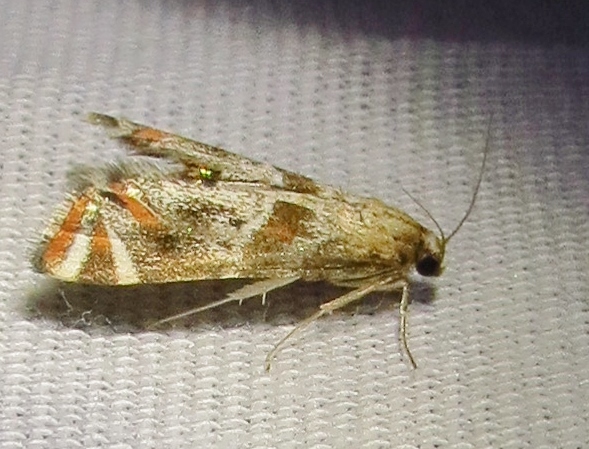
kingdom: Animalia
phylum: Arthropoda
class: Insecta
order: Lepidoptera
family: Crambidae
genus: Petrophila
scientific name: Petrophila jaliscalis
